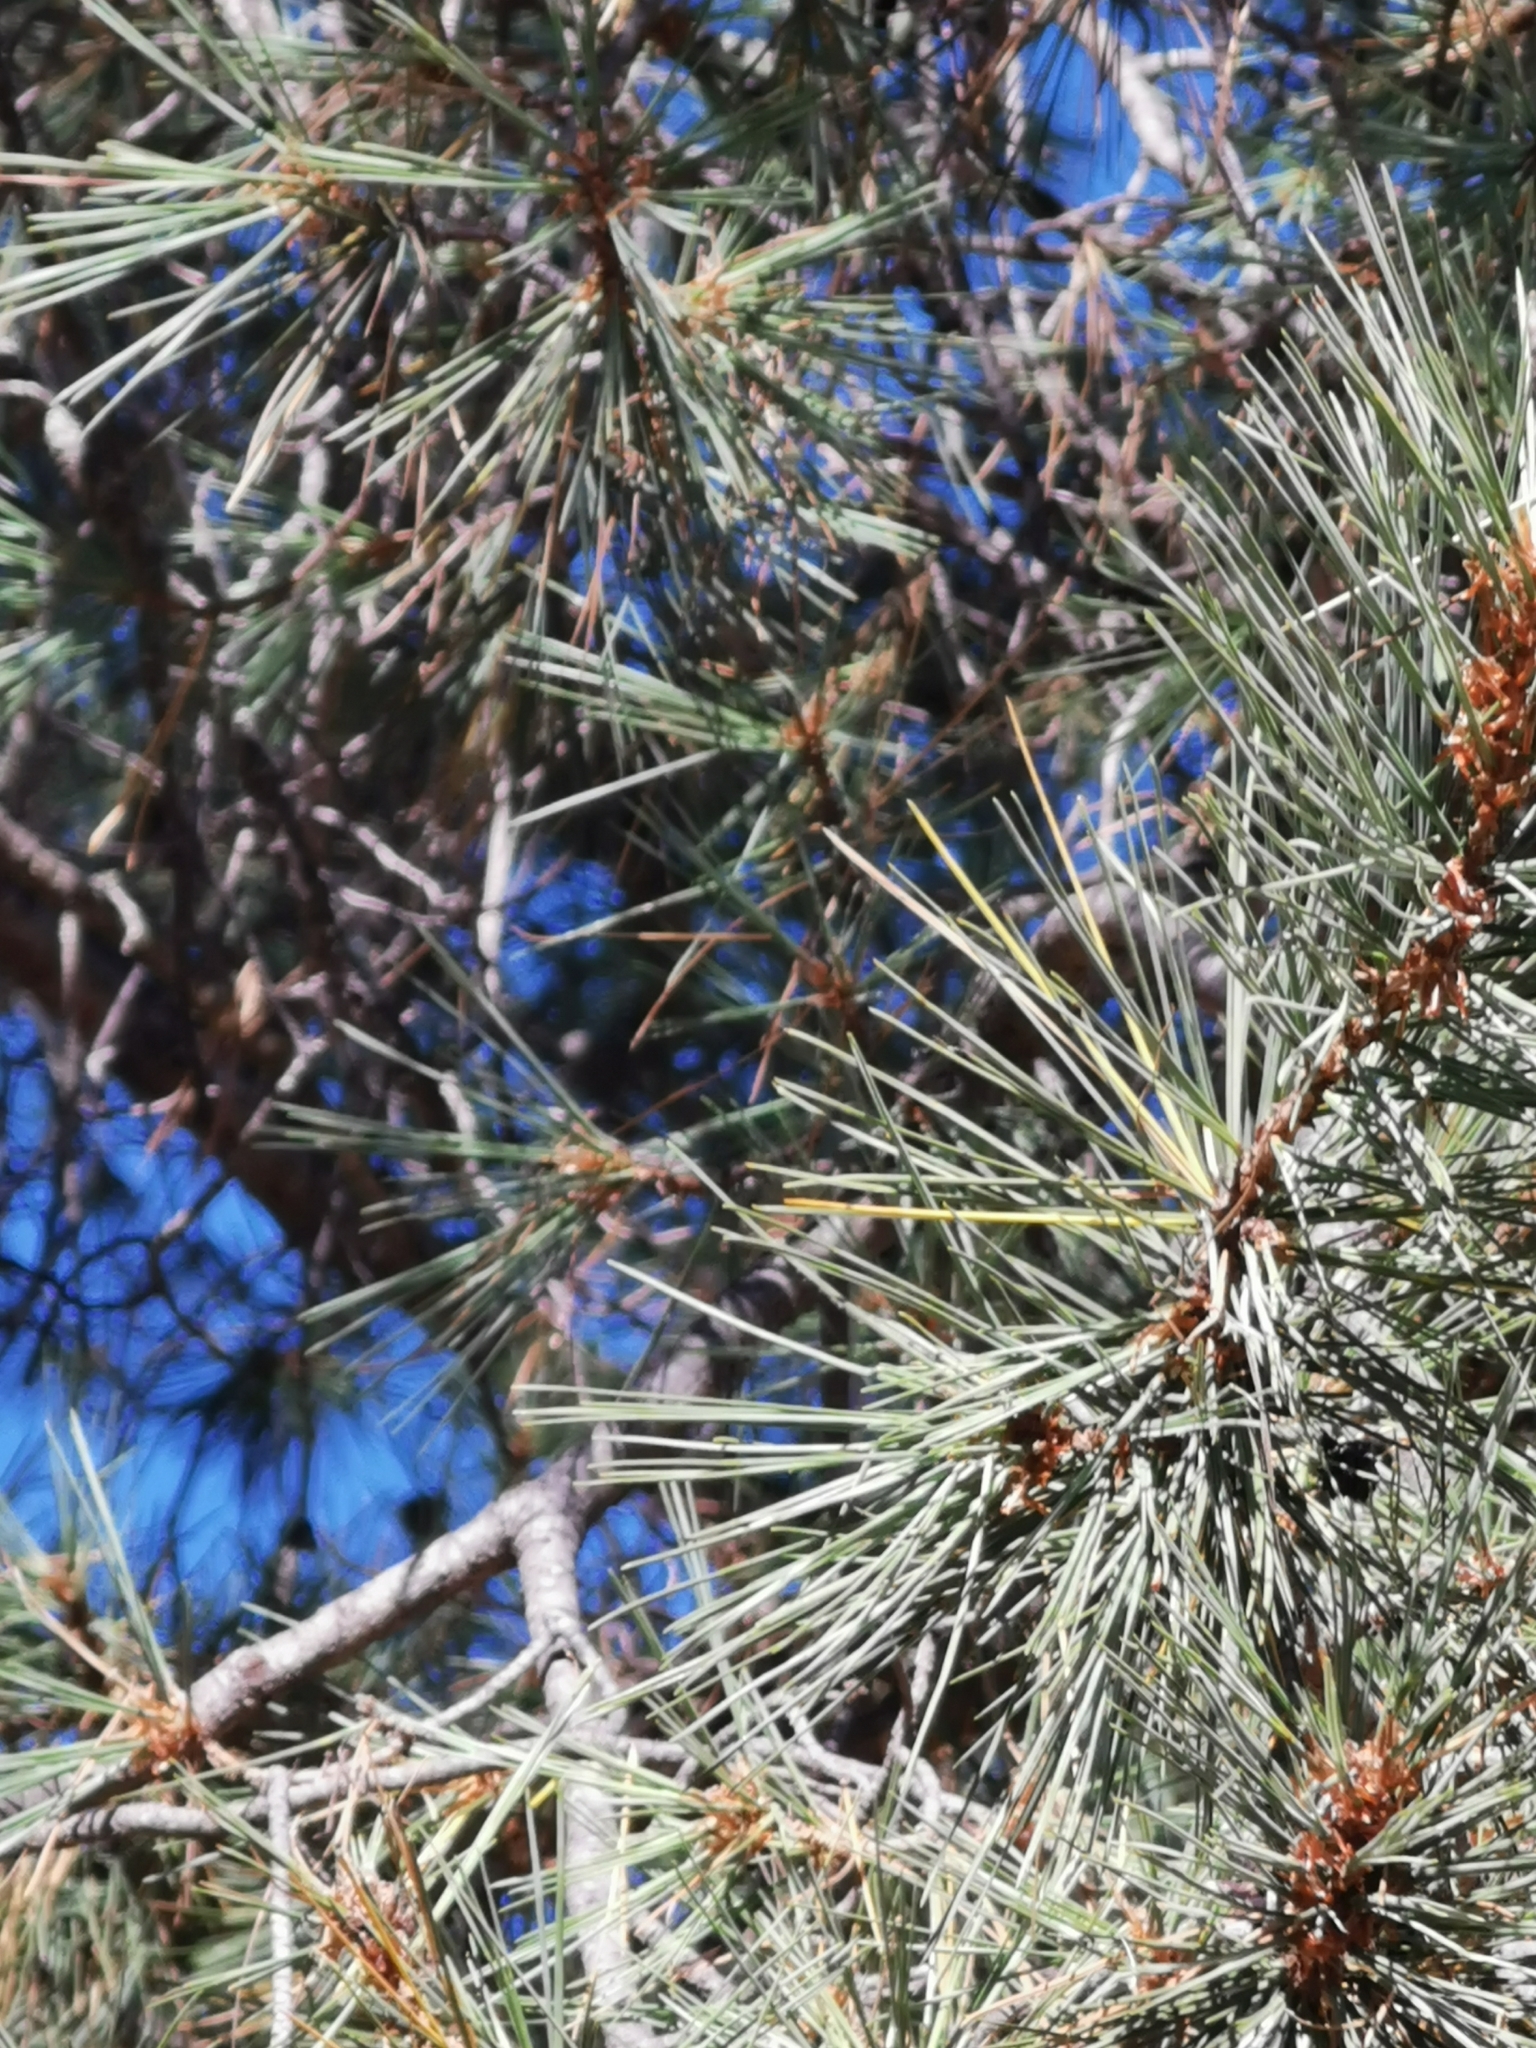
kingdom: Plantae
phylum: Tracheophyta
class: Pinopsida
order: Pinales
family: Pinaceae
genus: Pinus
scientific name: Pinus leiophylla
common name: Chihuahua pine
